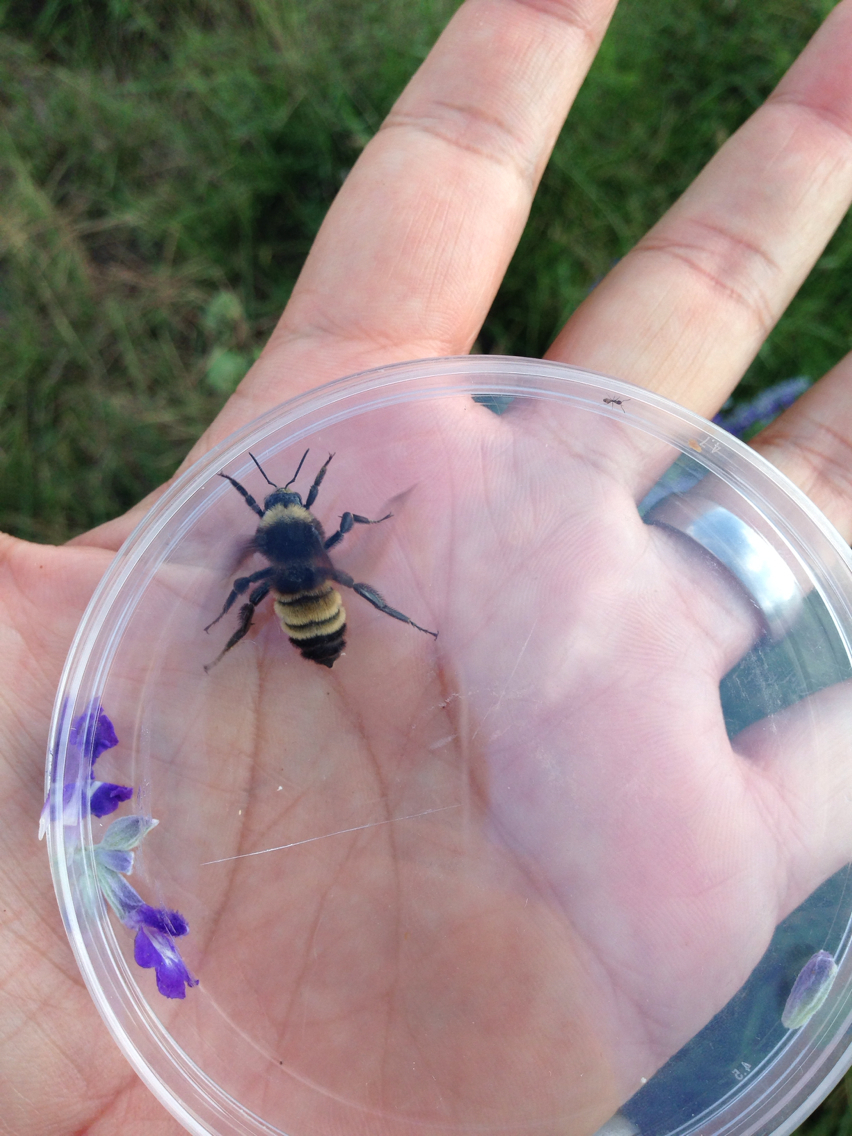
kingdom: Animalia
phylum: Arthropoda
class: Insecta
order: Hymenoptera
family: Apidae
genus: Bombus
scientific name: Bombus pensylvanicus
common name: Bumble bee
